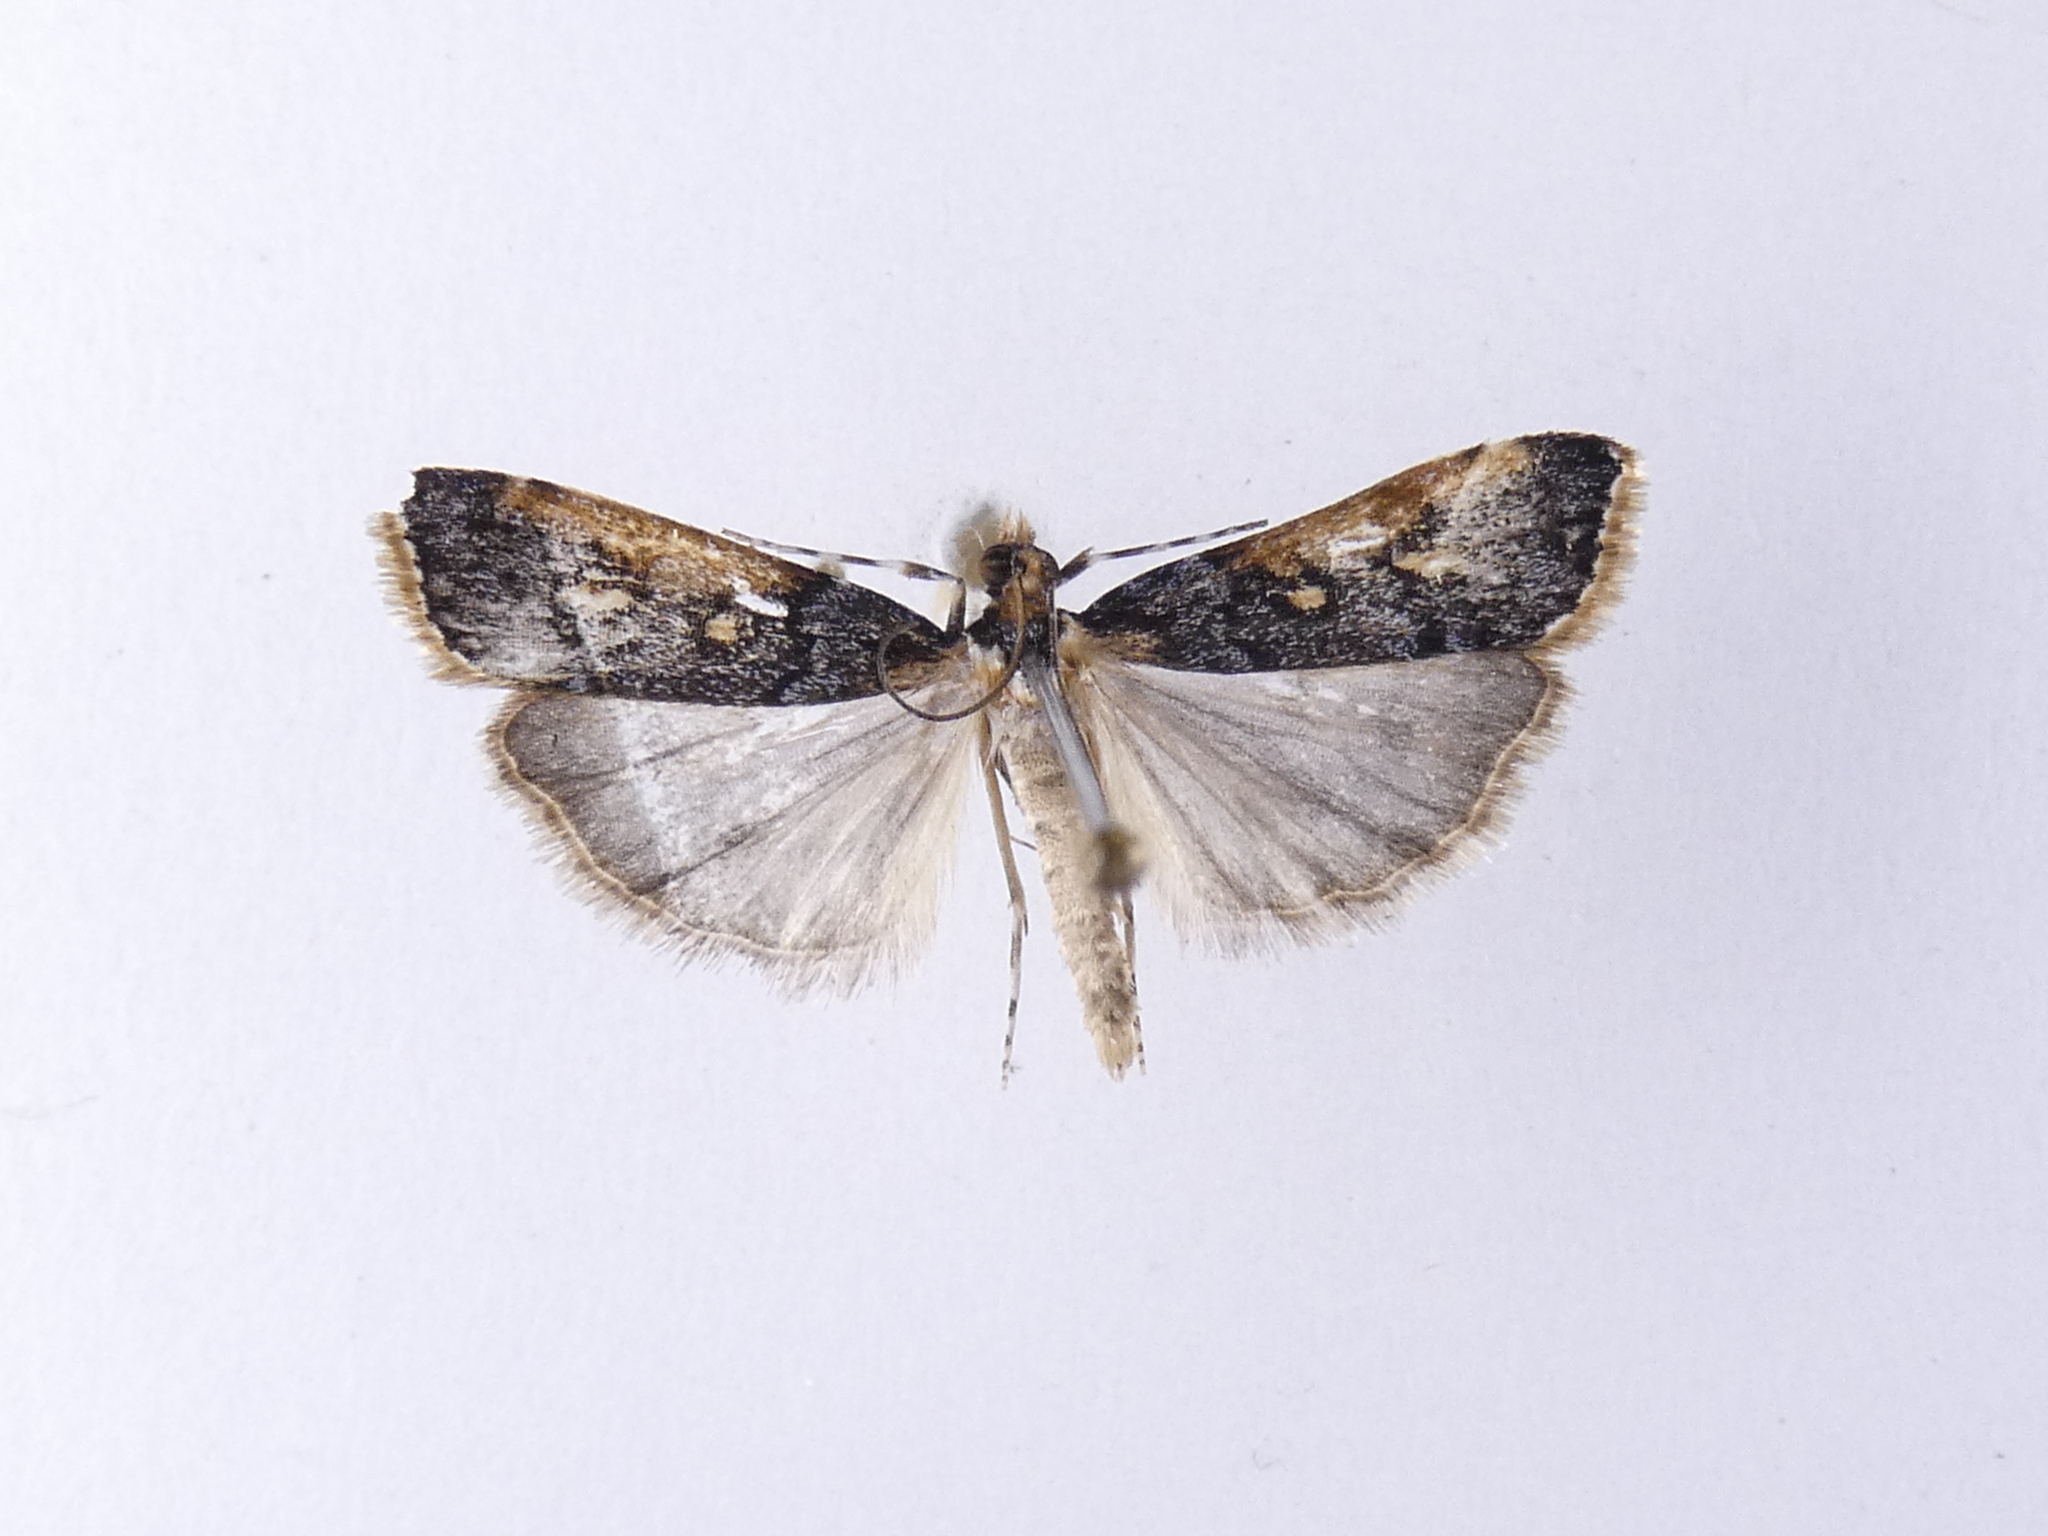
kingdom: Animalia
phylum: Arthropoda
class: Insecta
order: Lepidoptera
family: Crambidae
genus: Scoparia
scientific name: Scoparia phalerias
